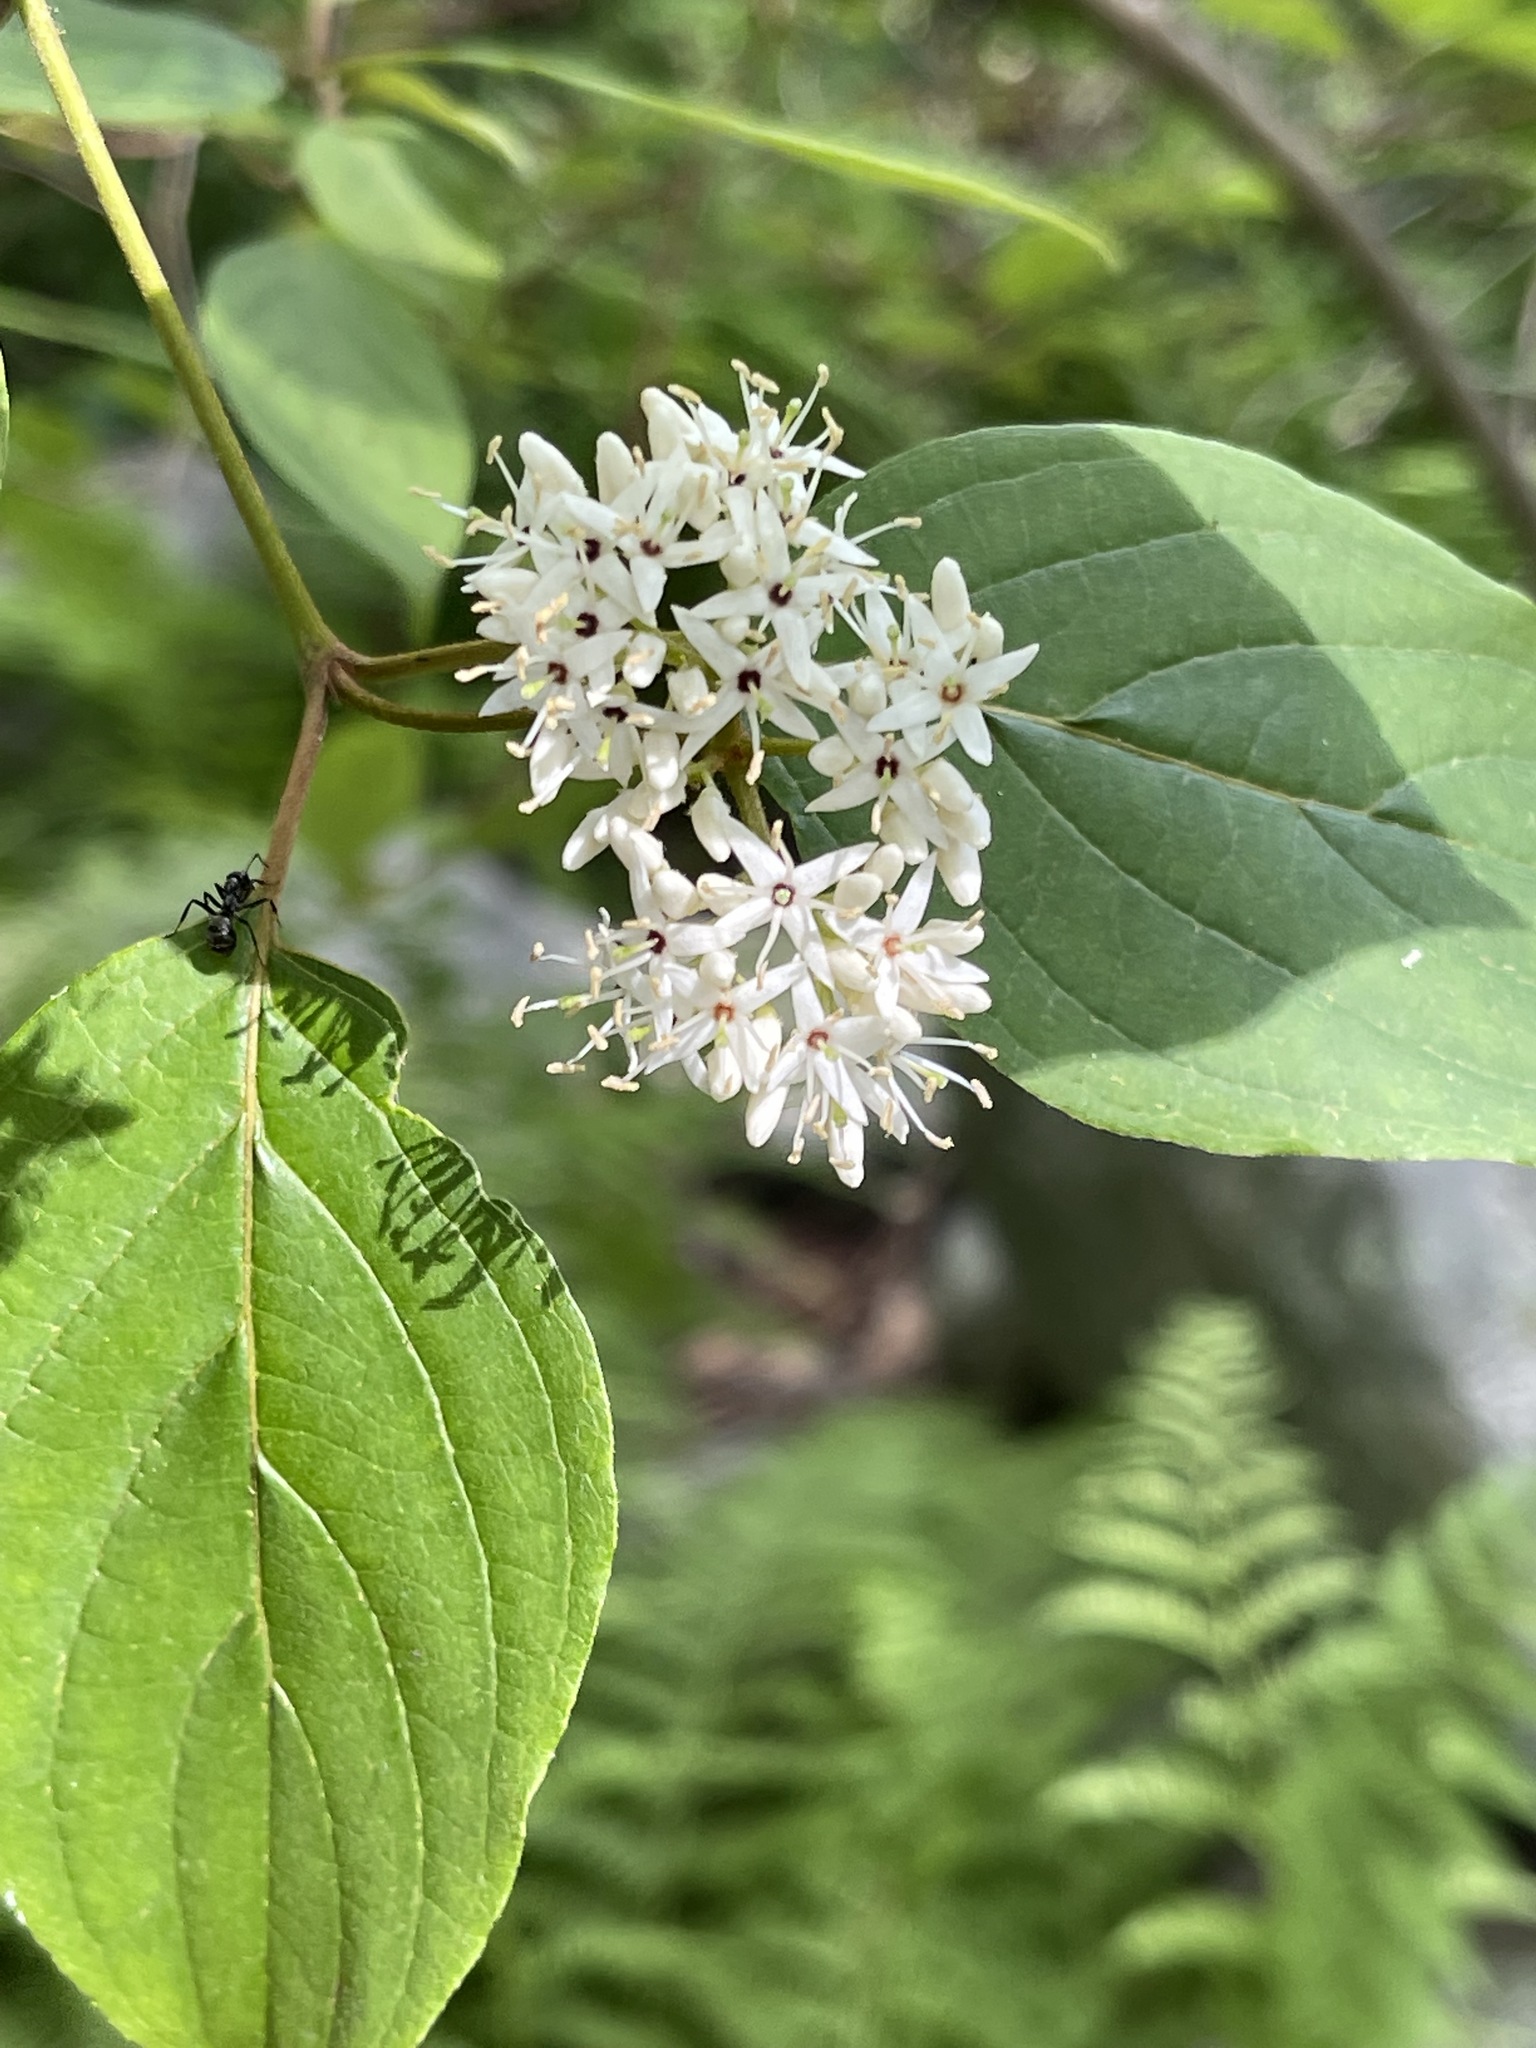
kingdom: Plantae
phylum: Tracheophyta
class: Magnoliopsida
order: Cornales
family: Cornaceae
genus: Cornus
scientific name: Cornus amomum
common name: Silky dogwood
